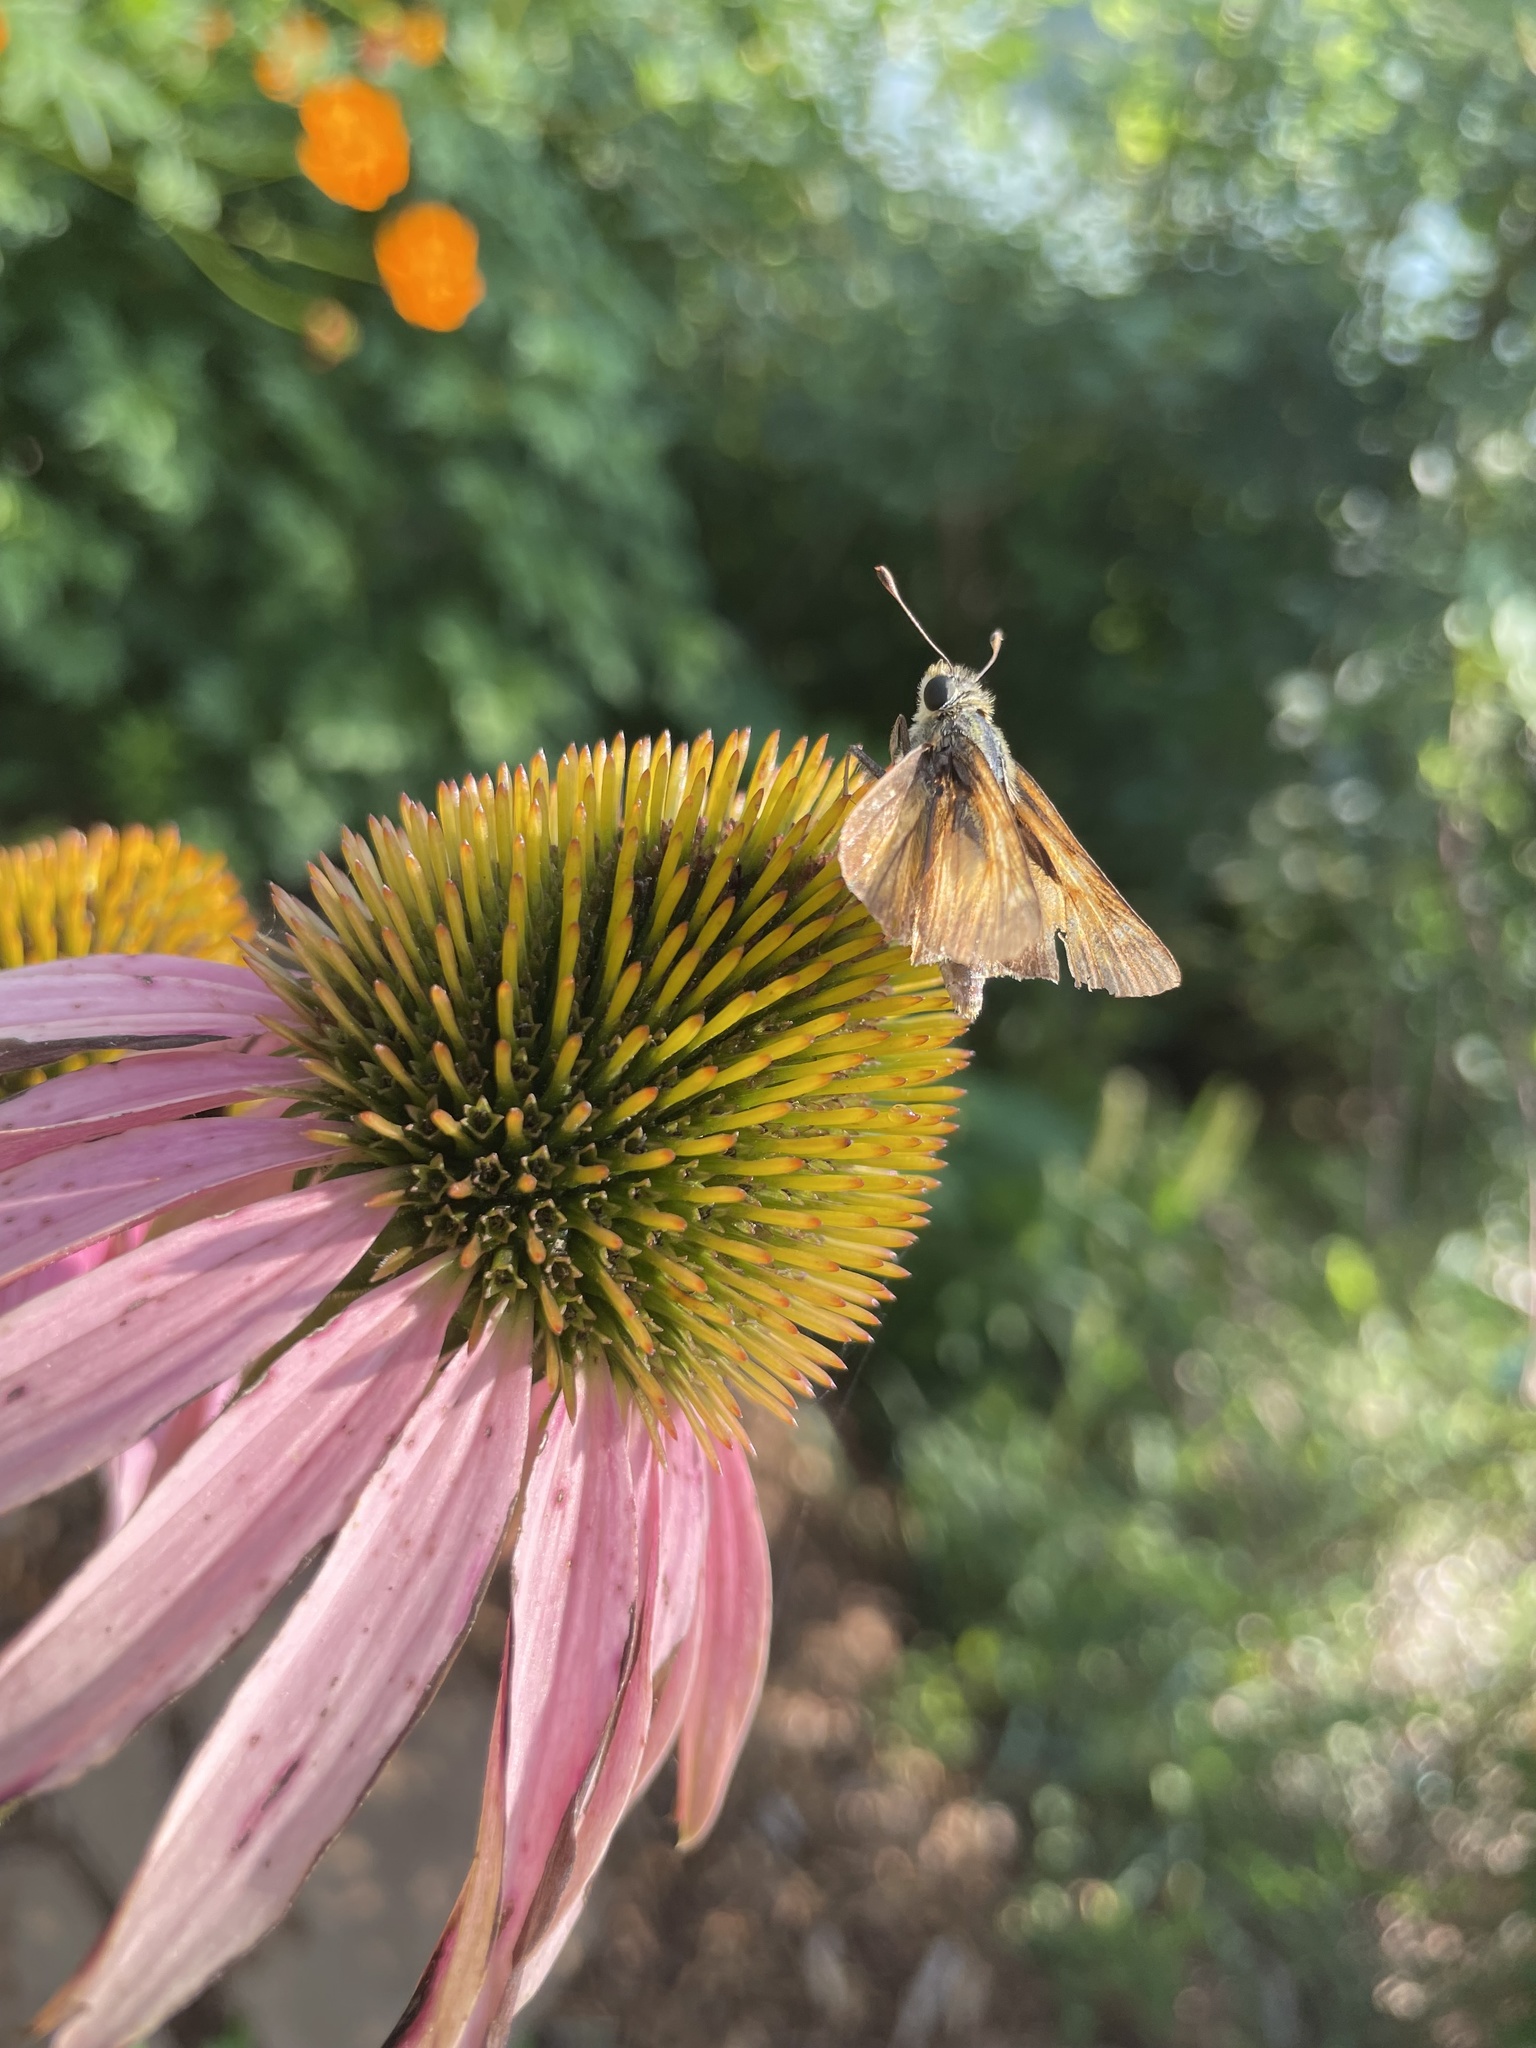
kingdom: Animalia
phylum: Arthropoda
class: Insecta
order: Lepidoptera
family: Hesperiidae
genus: Atalopedes
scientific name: Atalopedes
